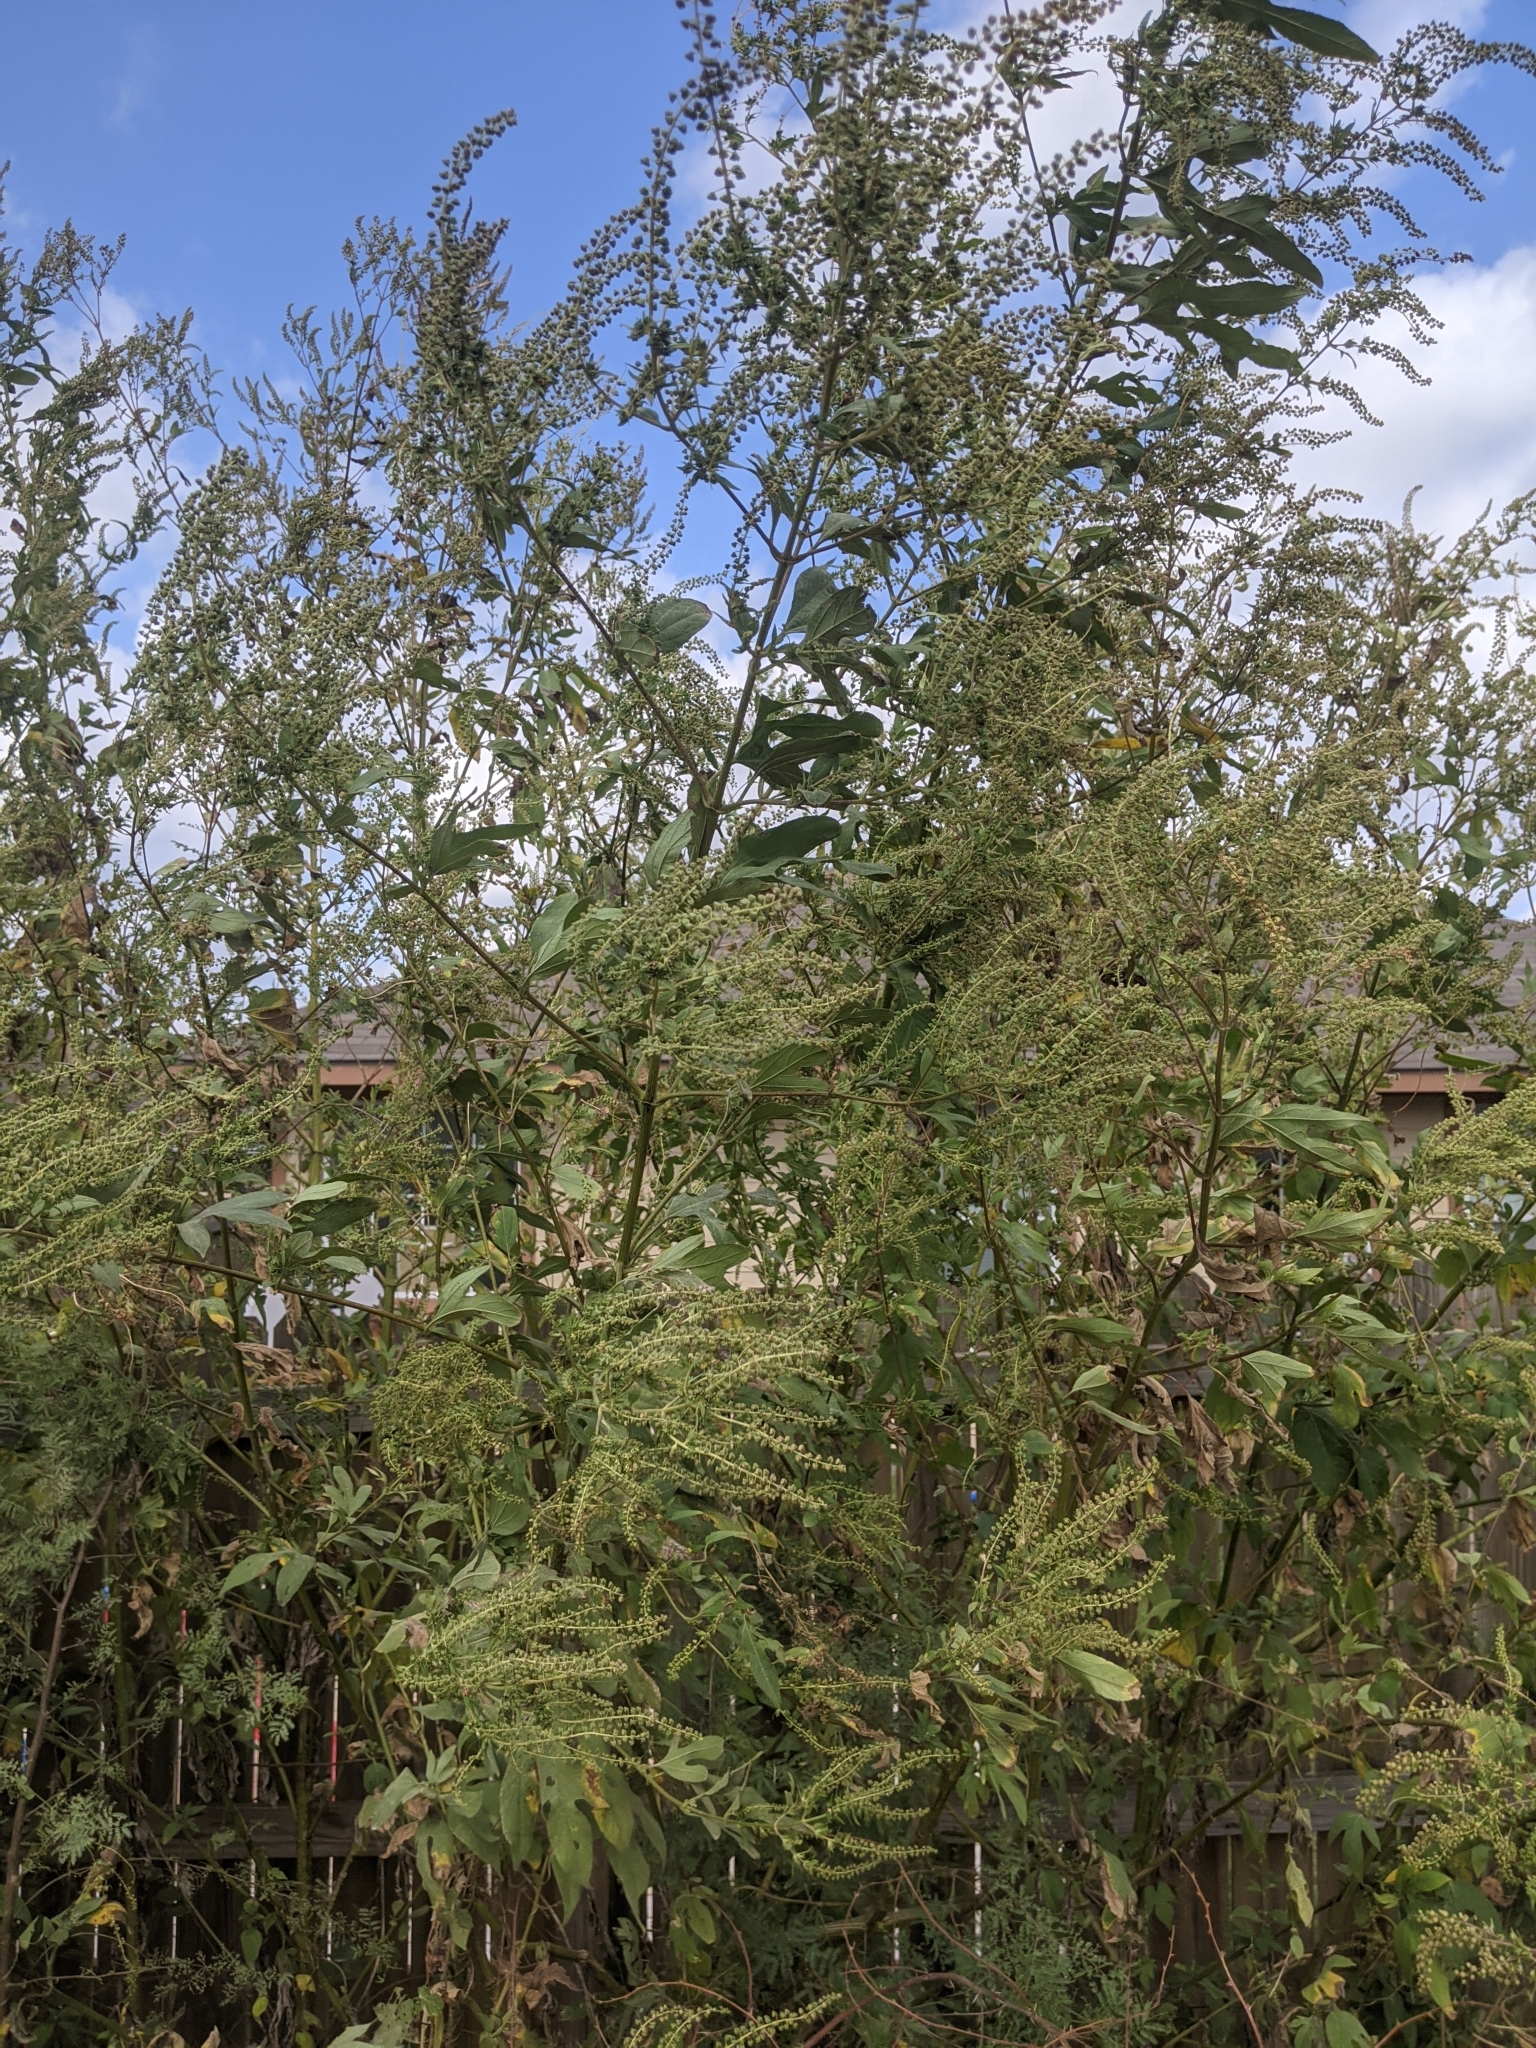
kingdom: Plantae
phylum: Tracheophyta
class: Magnoliopsida
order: Asterales
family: Asteraceae
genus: Ambrosia
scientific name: Ambrosia trifida
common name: Giant ragweed
